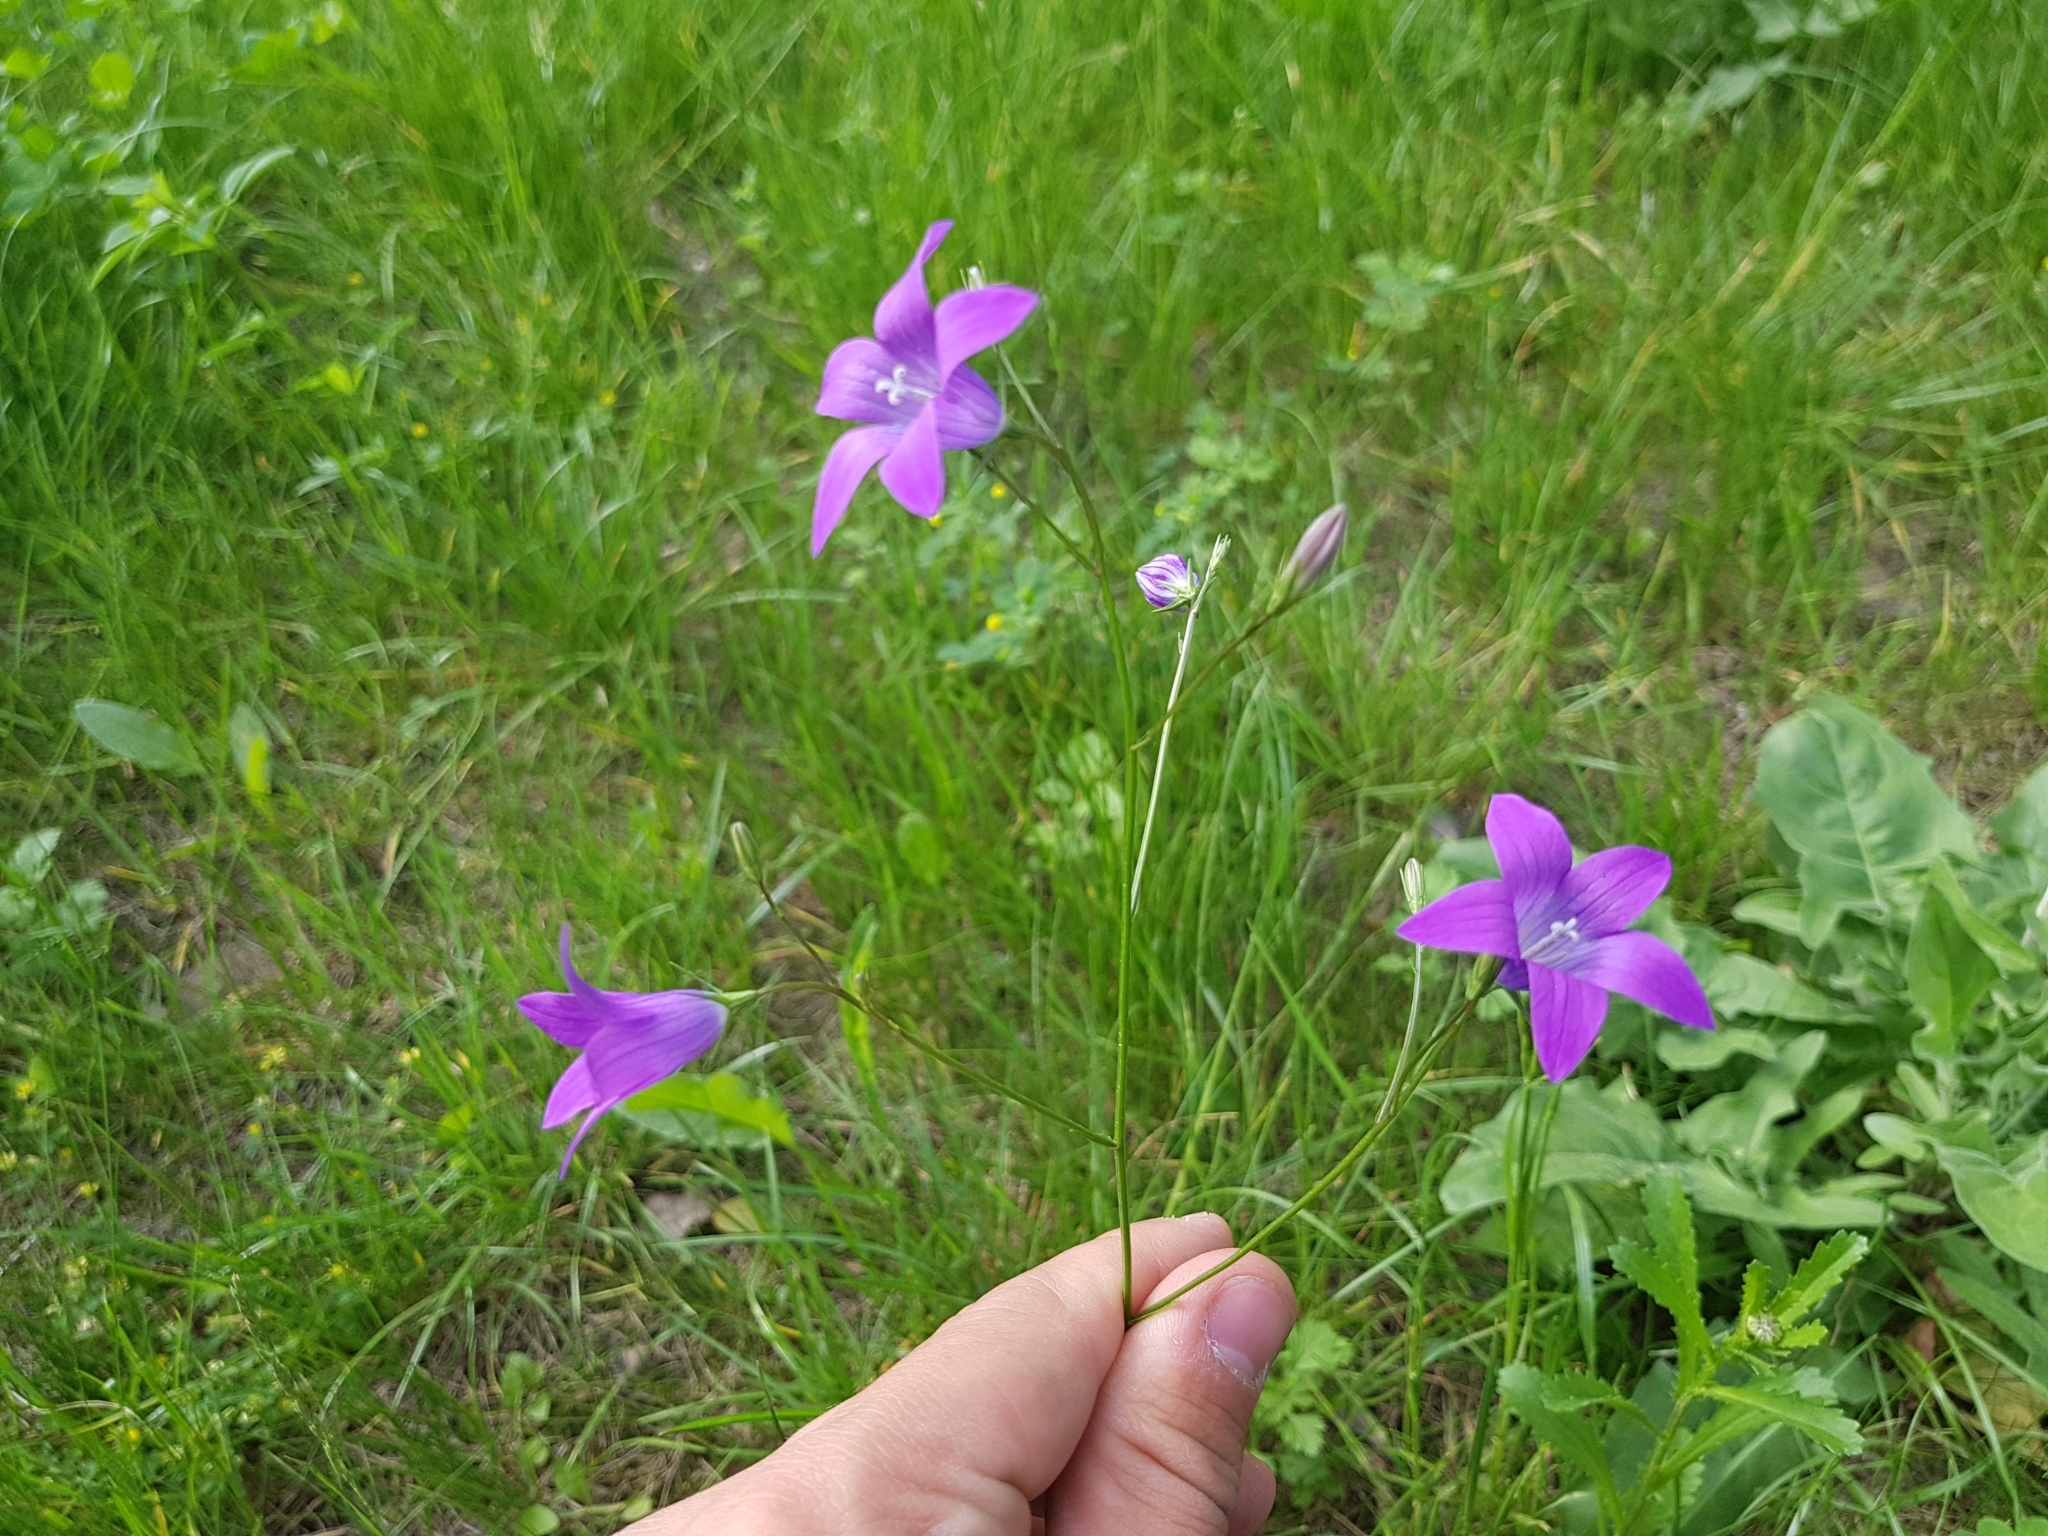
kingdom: Plantae
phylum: Tracheophyta
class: Magnoliopsida
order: Asterales
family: Campanulaceae
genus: Campanula
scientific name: Campanula patula
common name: Spreading bellflower
